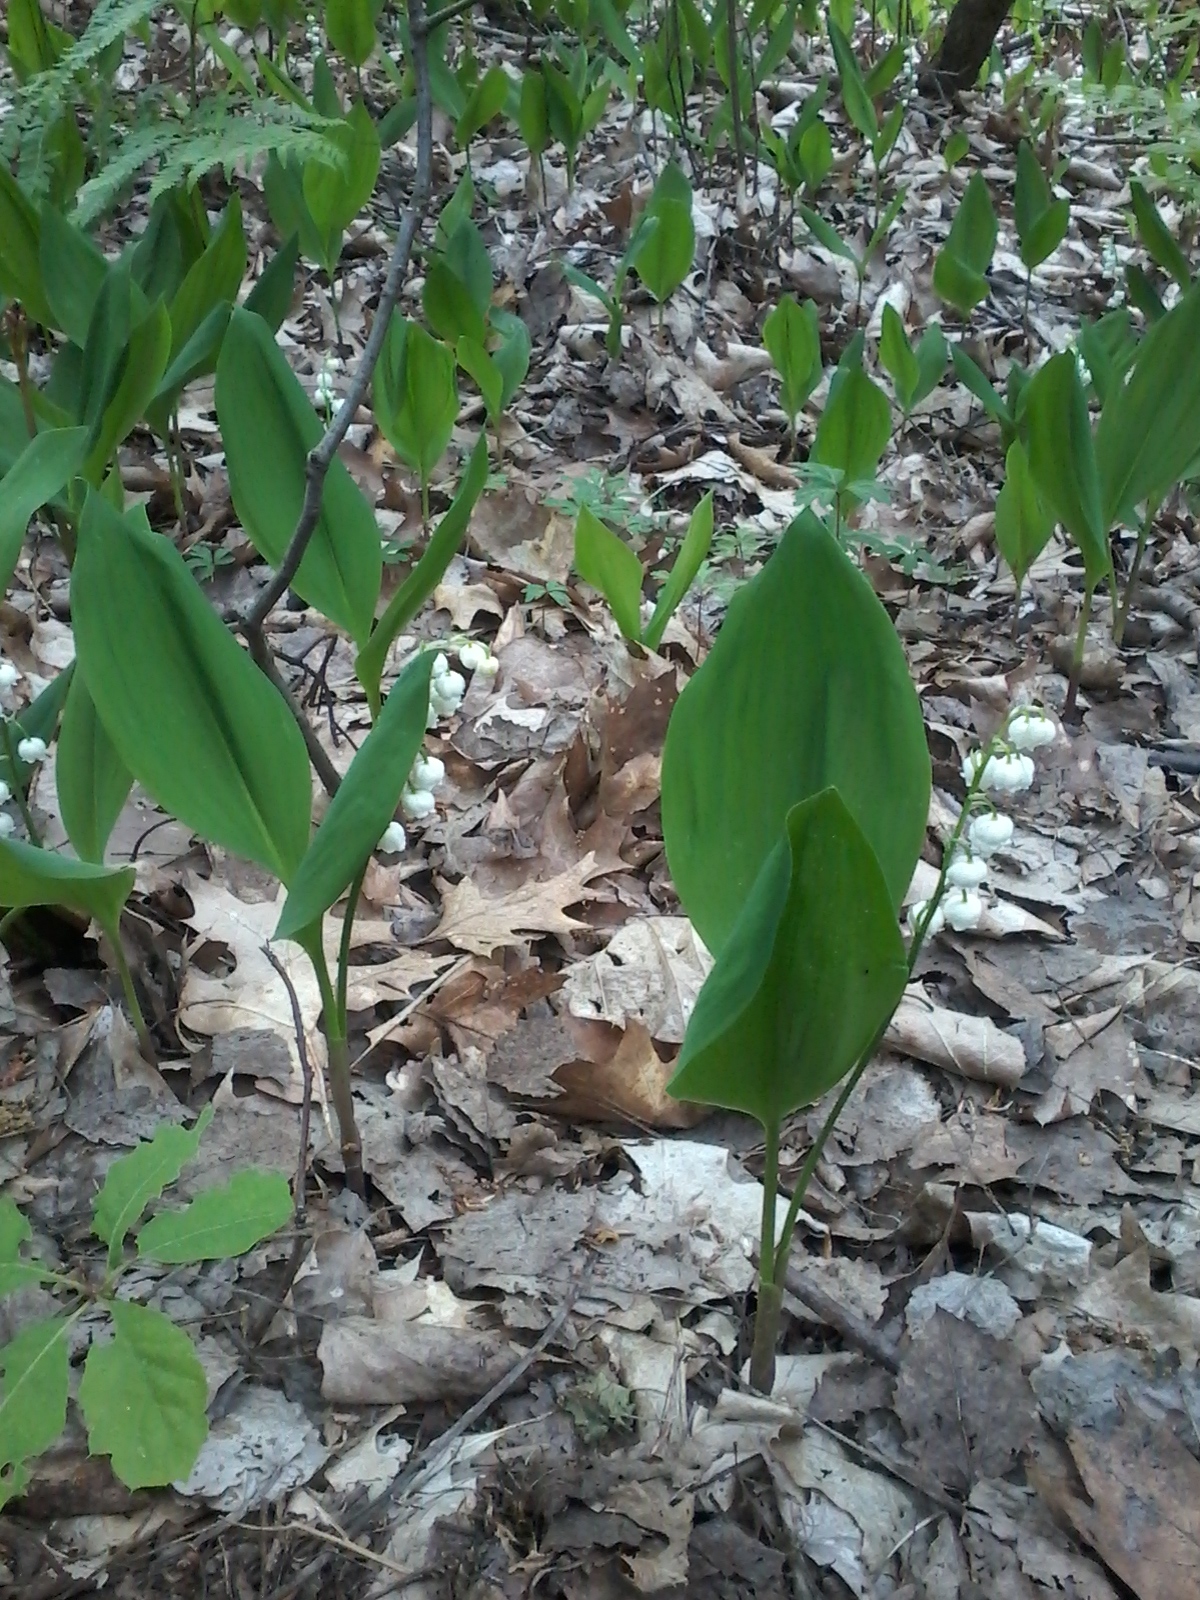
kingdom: Plantae
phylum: Tracheophyta
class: Liliopsida
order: Asparagales
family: Asparagaceae
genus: Convallaria
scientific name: Convallaria majalis
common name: Lily-of-the-valley
